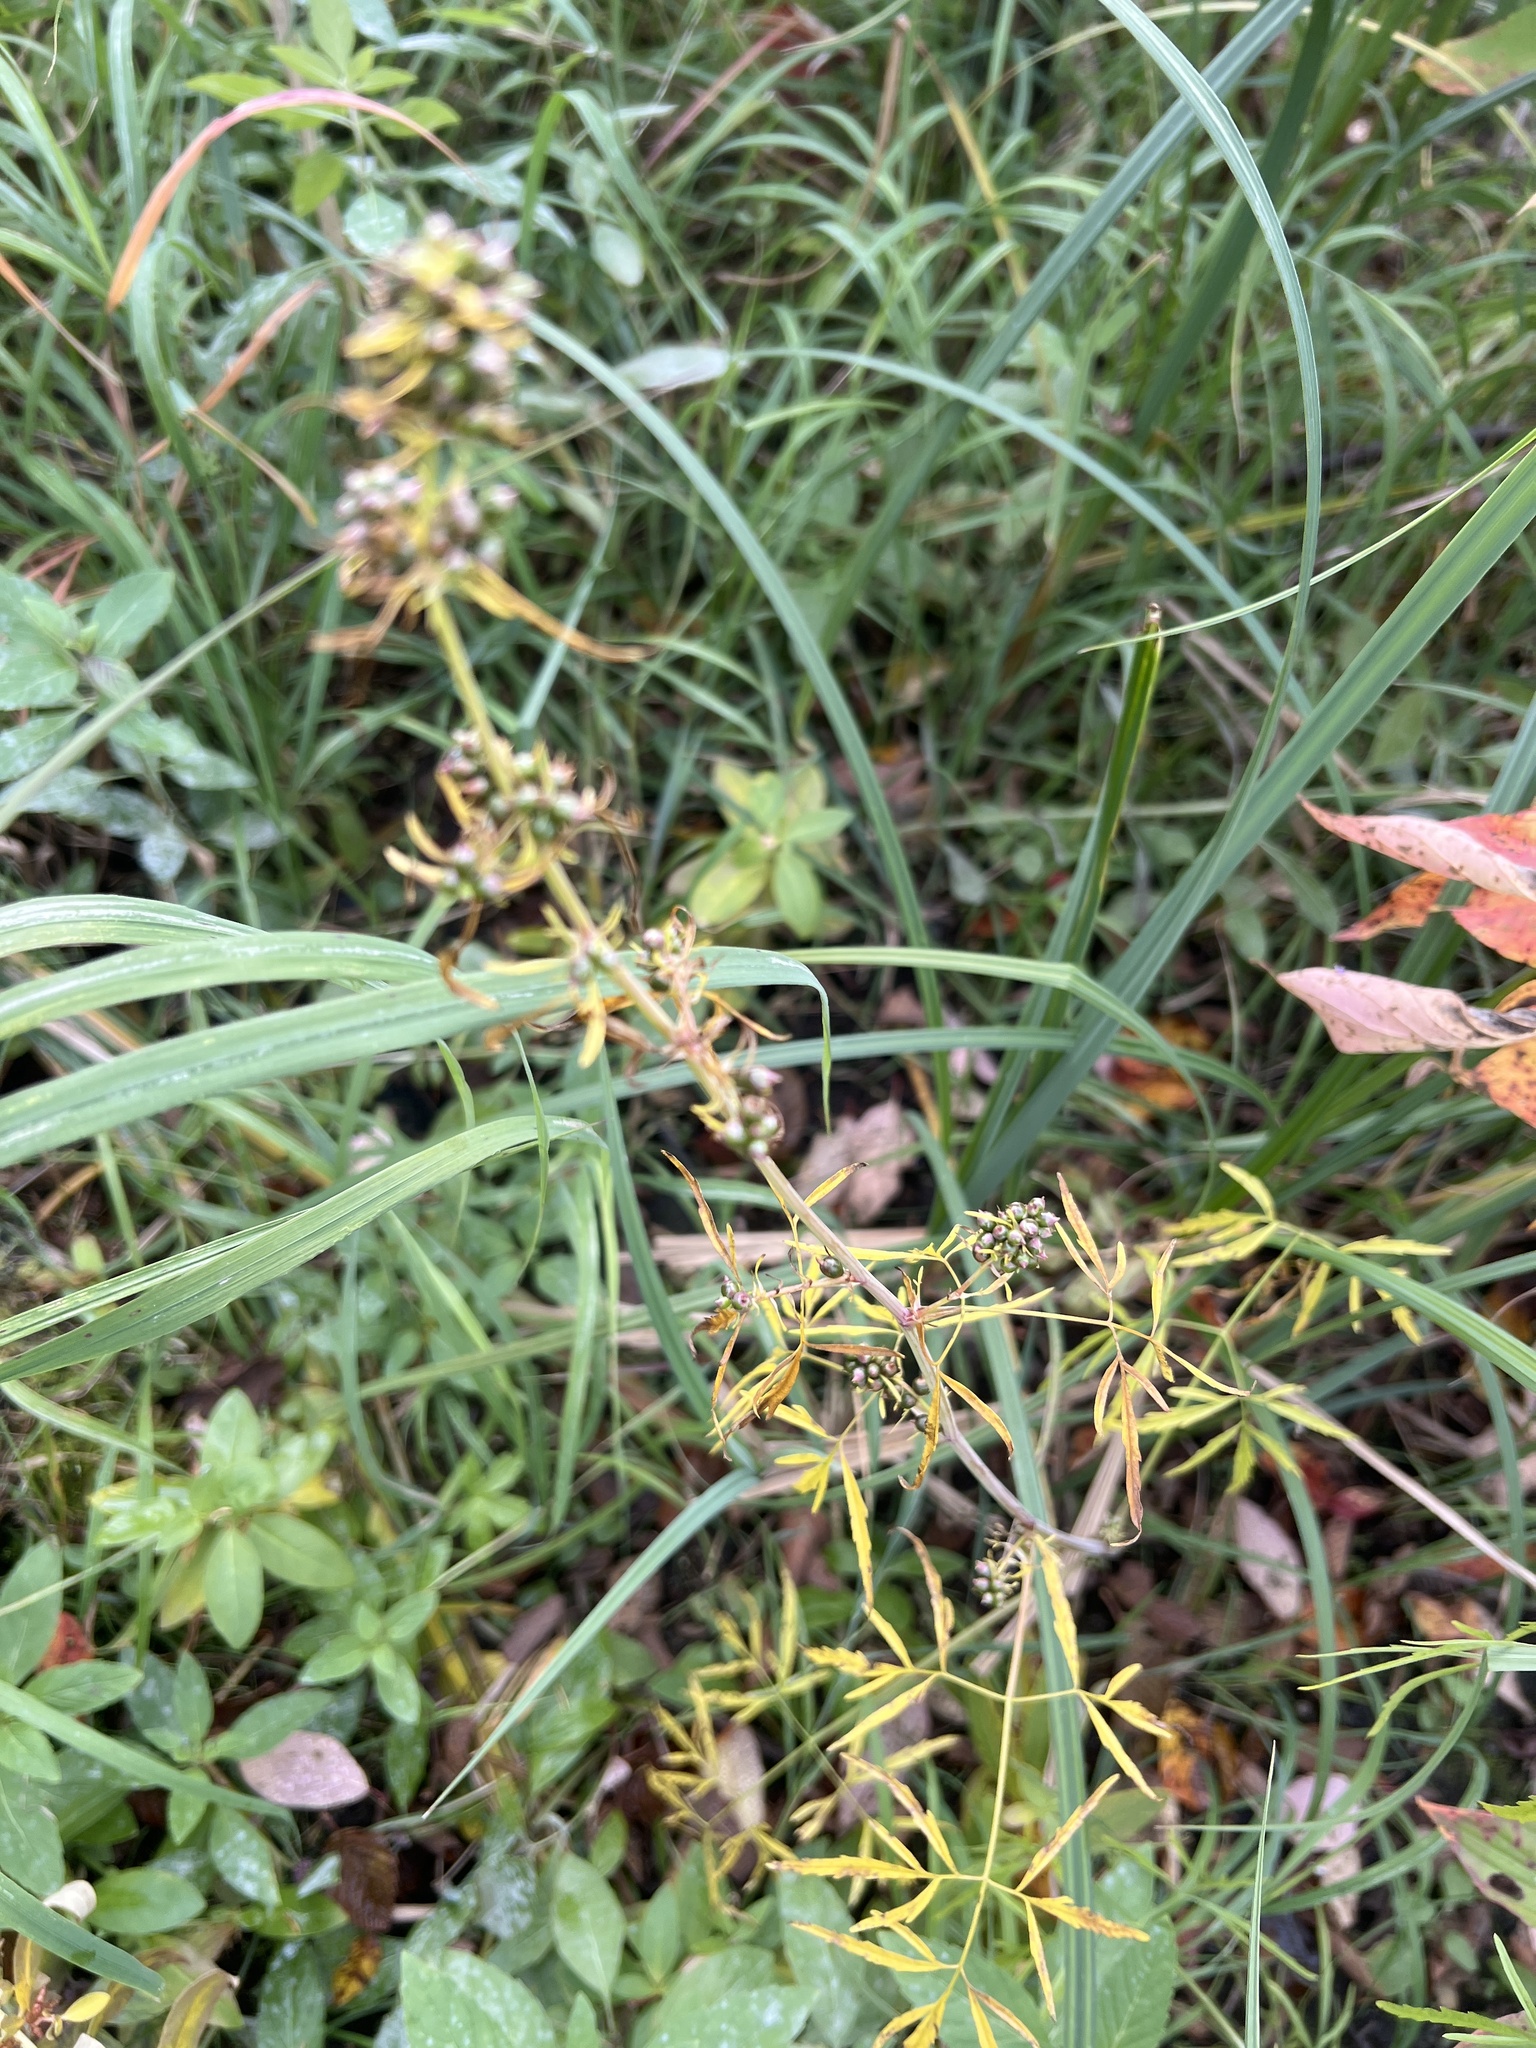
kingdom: Plantae
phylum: Tracheophyta
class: Magnoliopsida
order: Apiales
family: Apiaceae
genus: Cicuta
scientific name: Cicuta bulbifera
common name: Bulb-bearing water-hemlock
